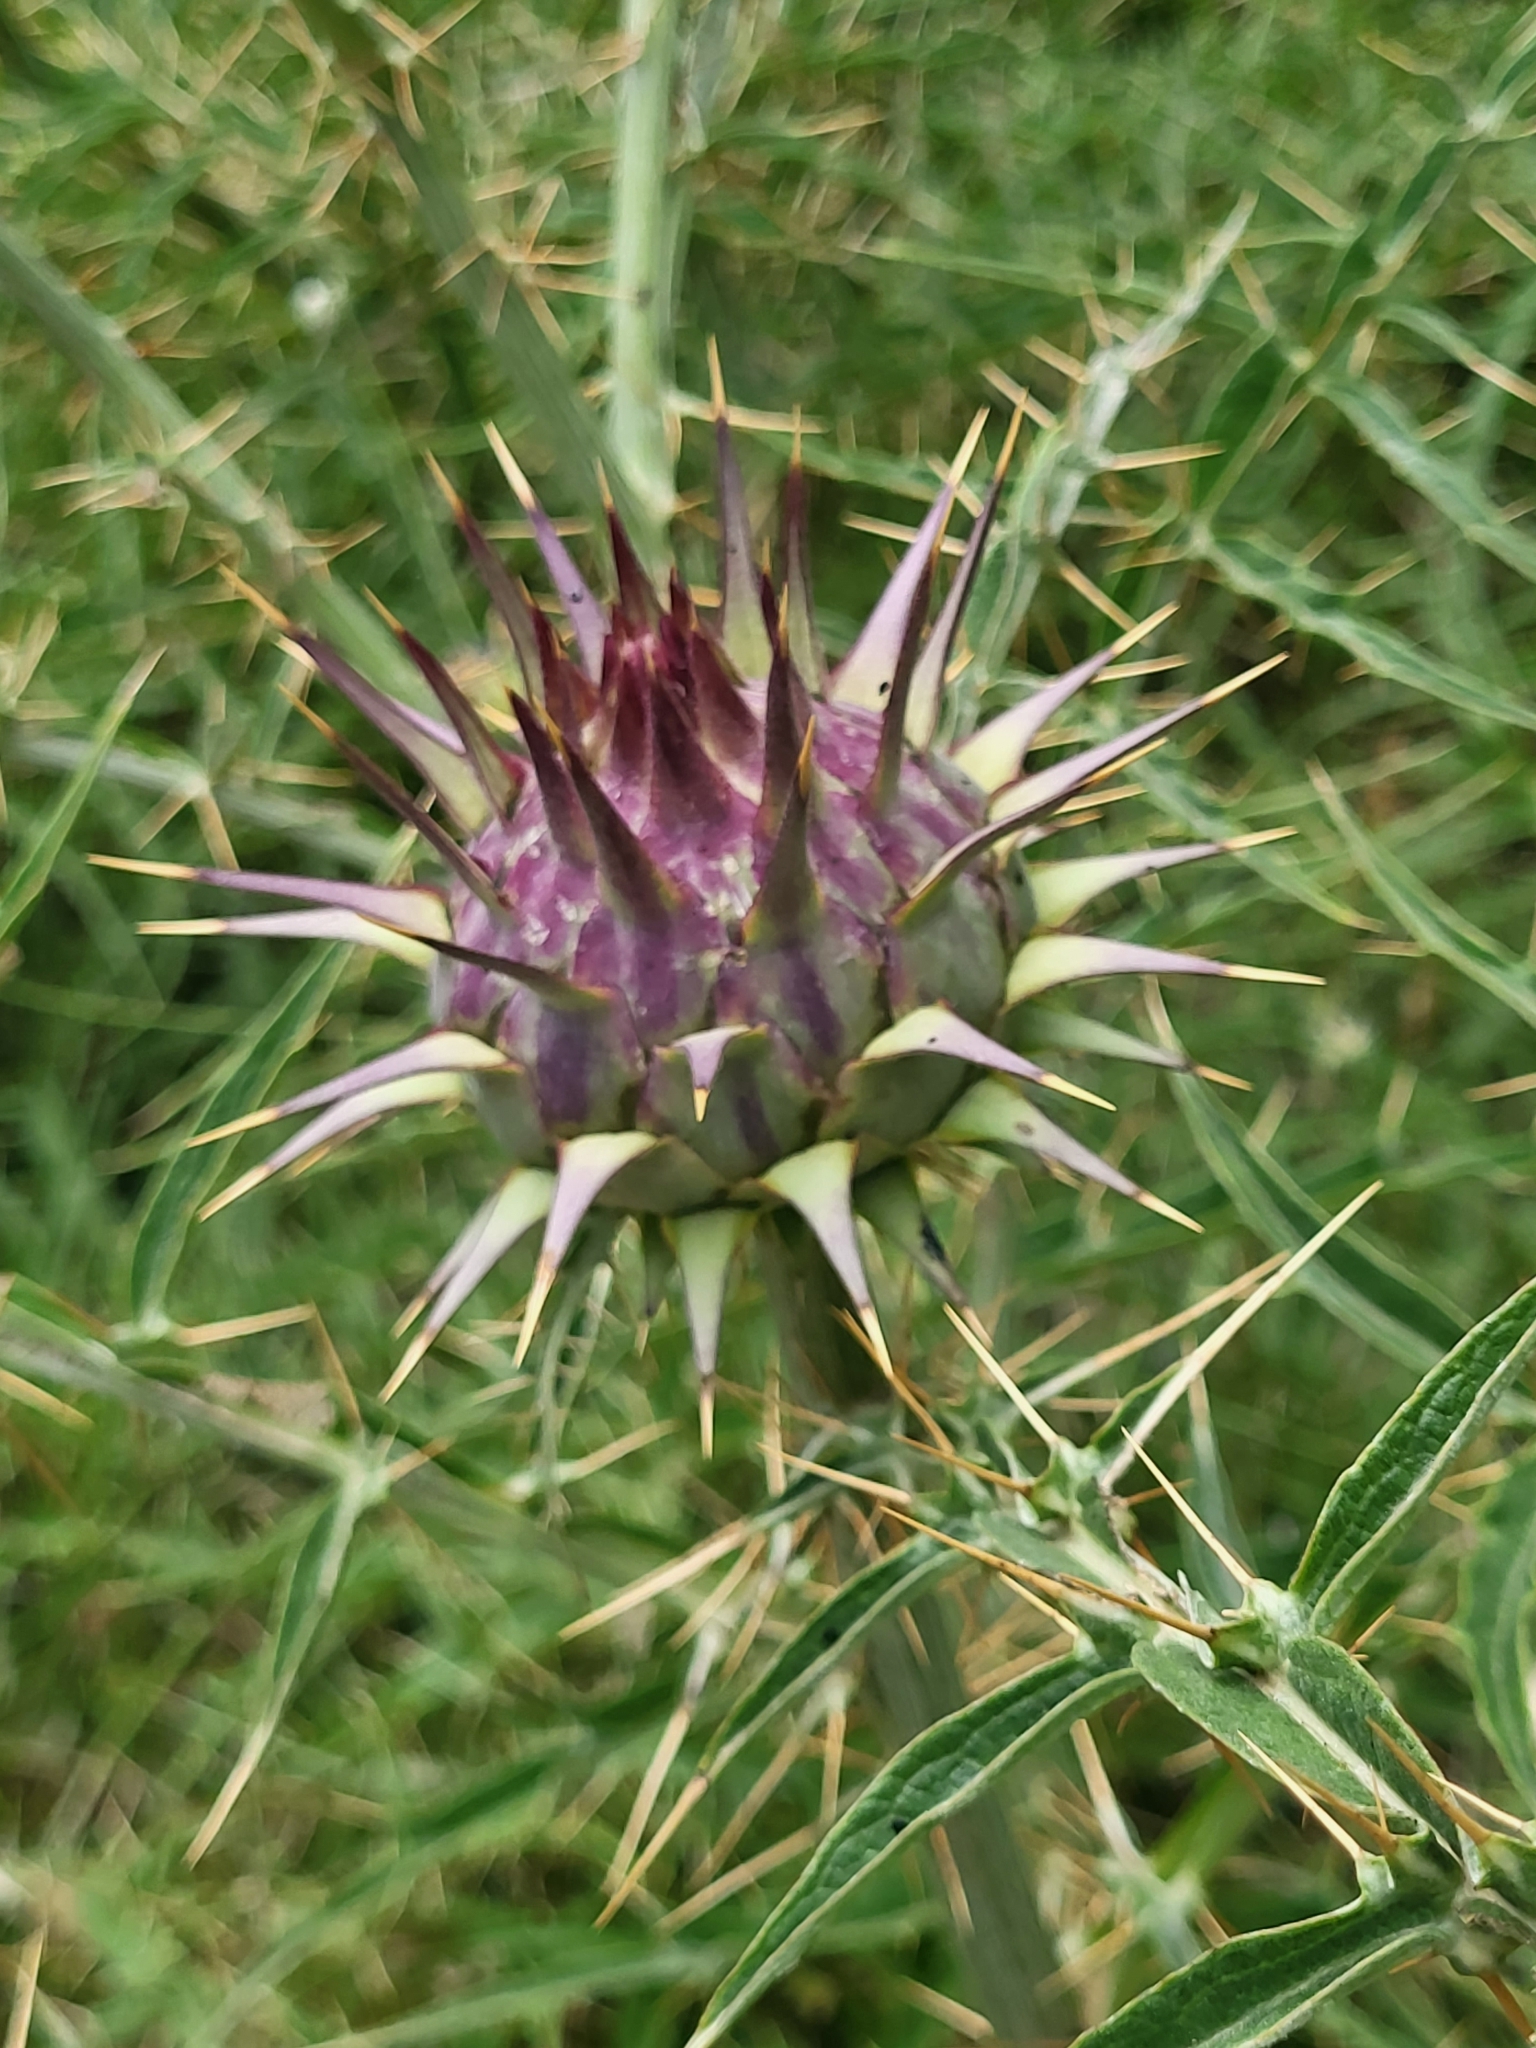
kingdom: Plantae
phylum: Tracheophyta
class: Magnoliopsida
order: Asterales
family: Asteraceae
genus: Cynara
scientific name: Cynara cardunculus
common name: Globe artichoke
